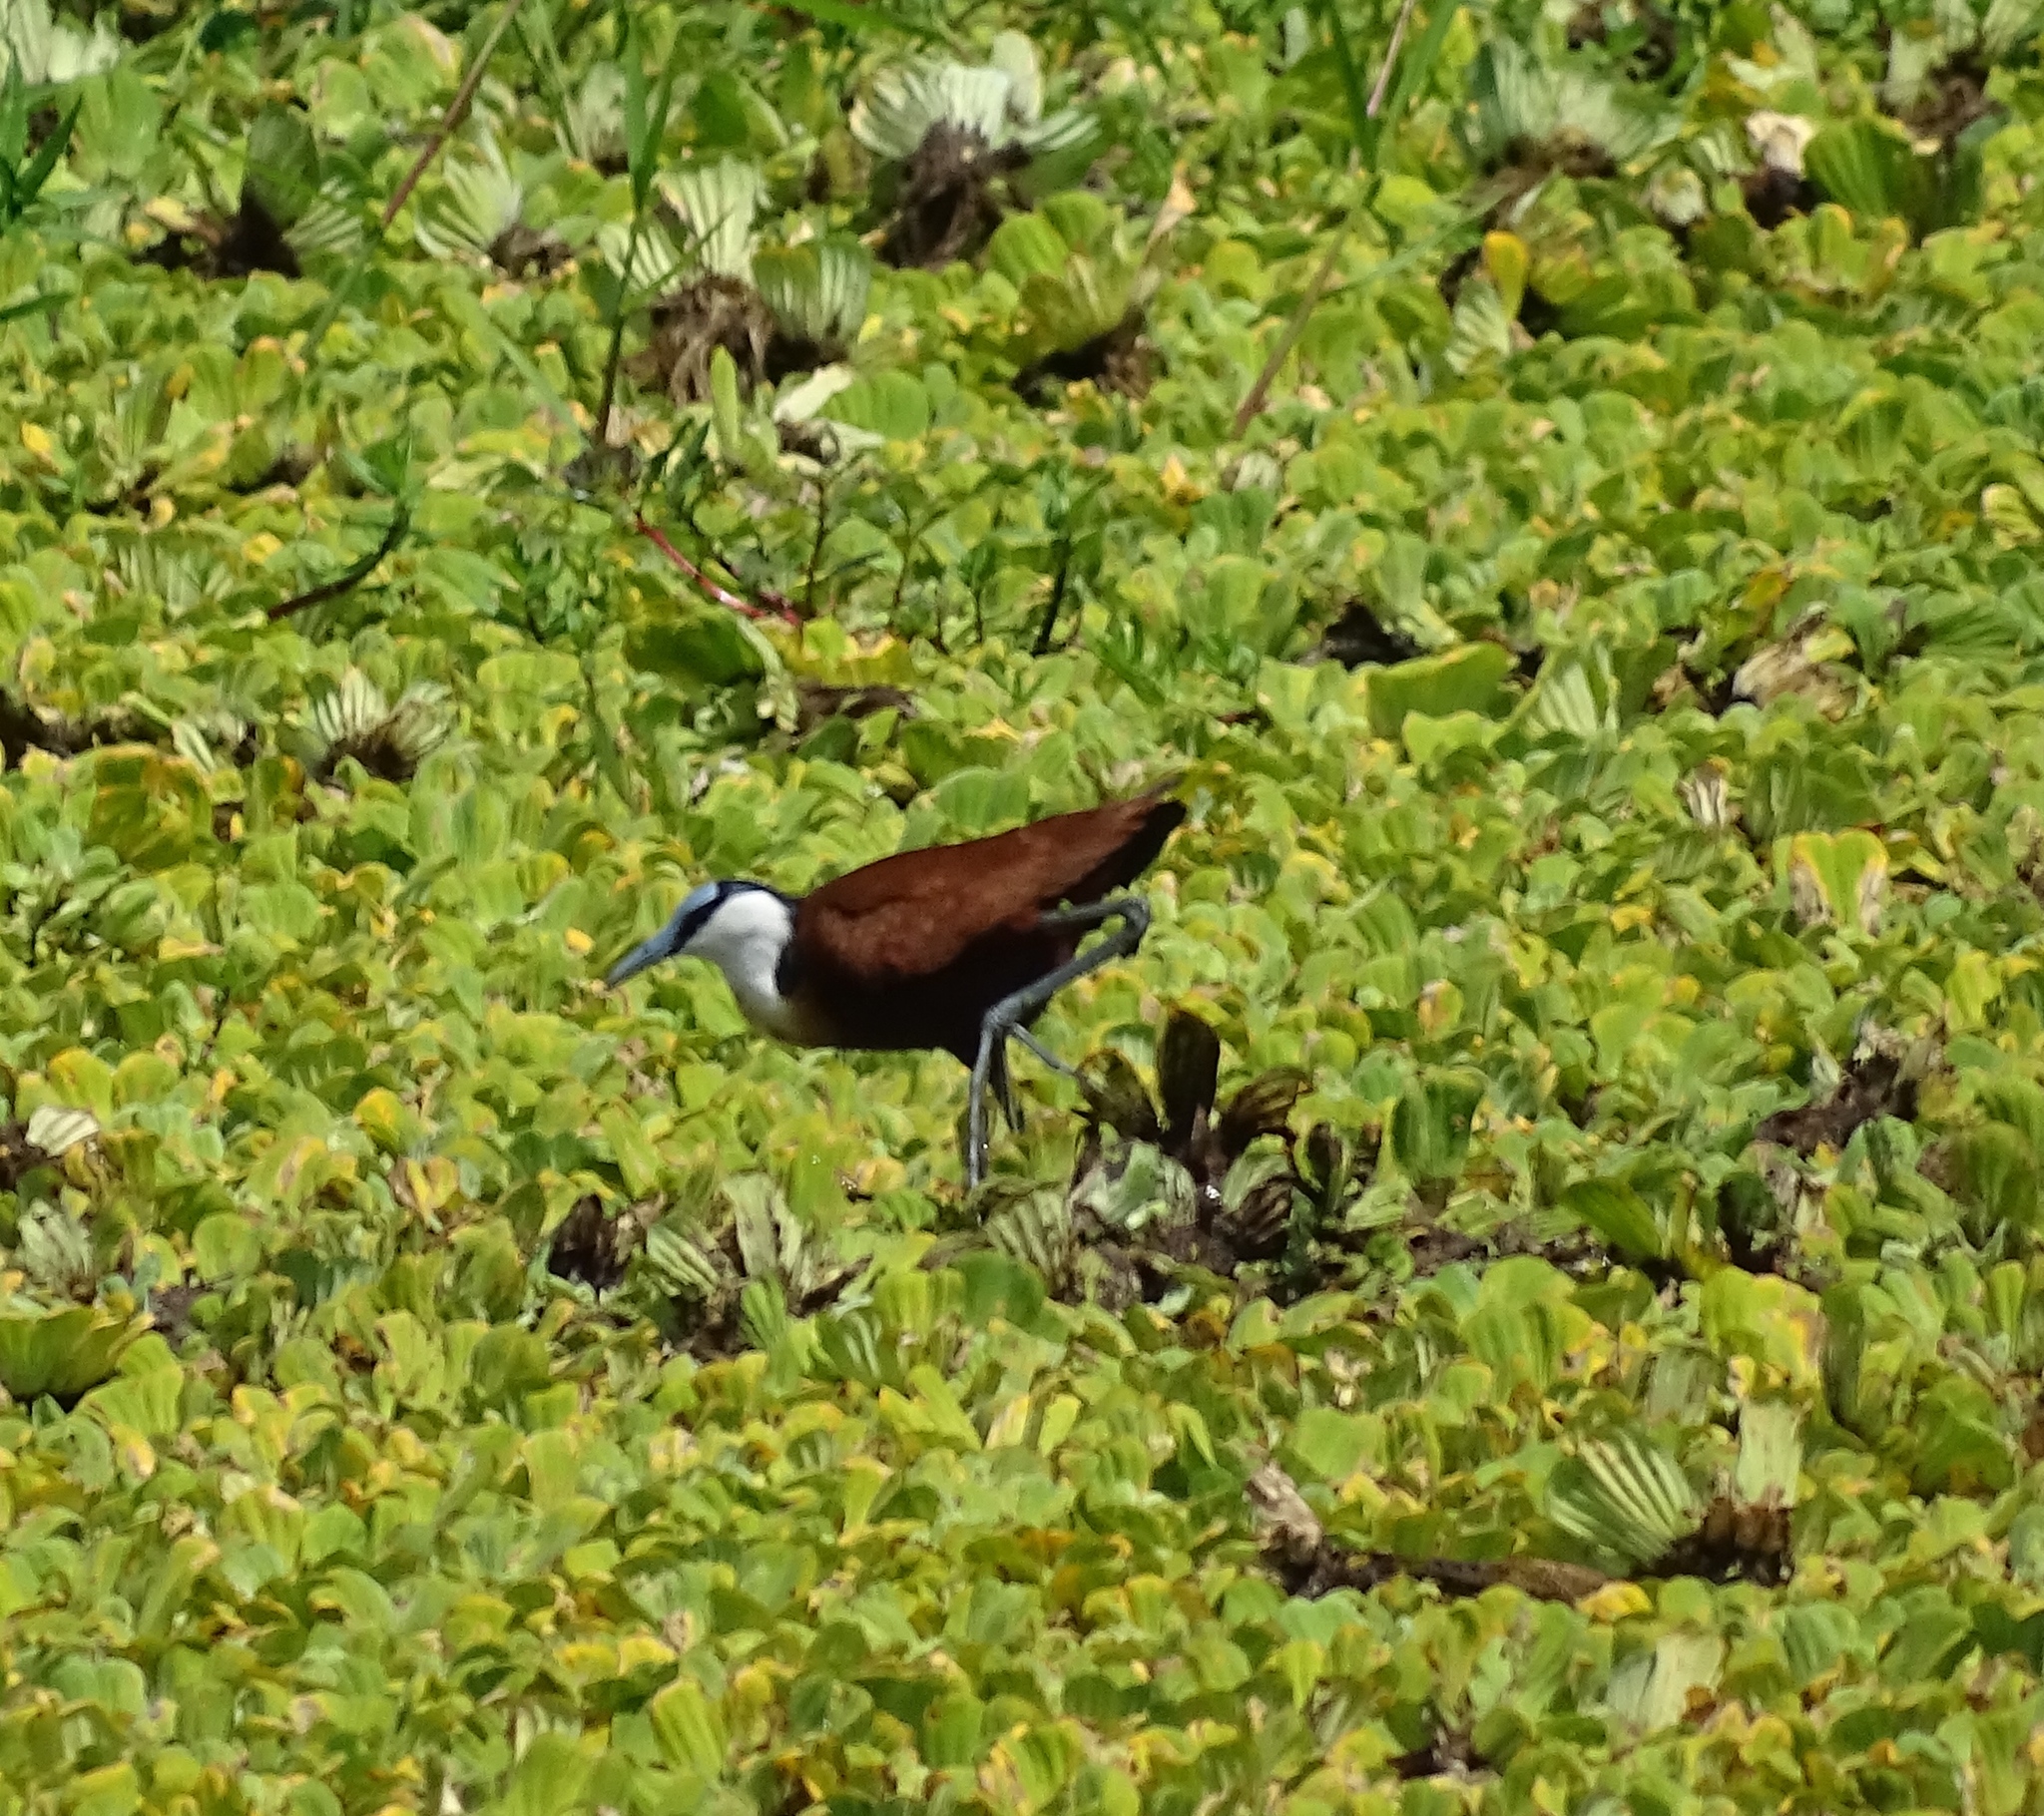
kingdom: Animalia
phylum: Chordata
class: Aves
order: Charadriiformes
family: Jacanidae
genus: Actophilornis
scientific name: Actophilornis africanus
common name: African jacana
